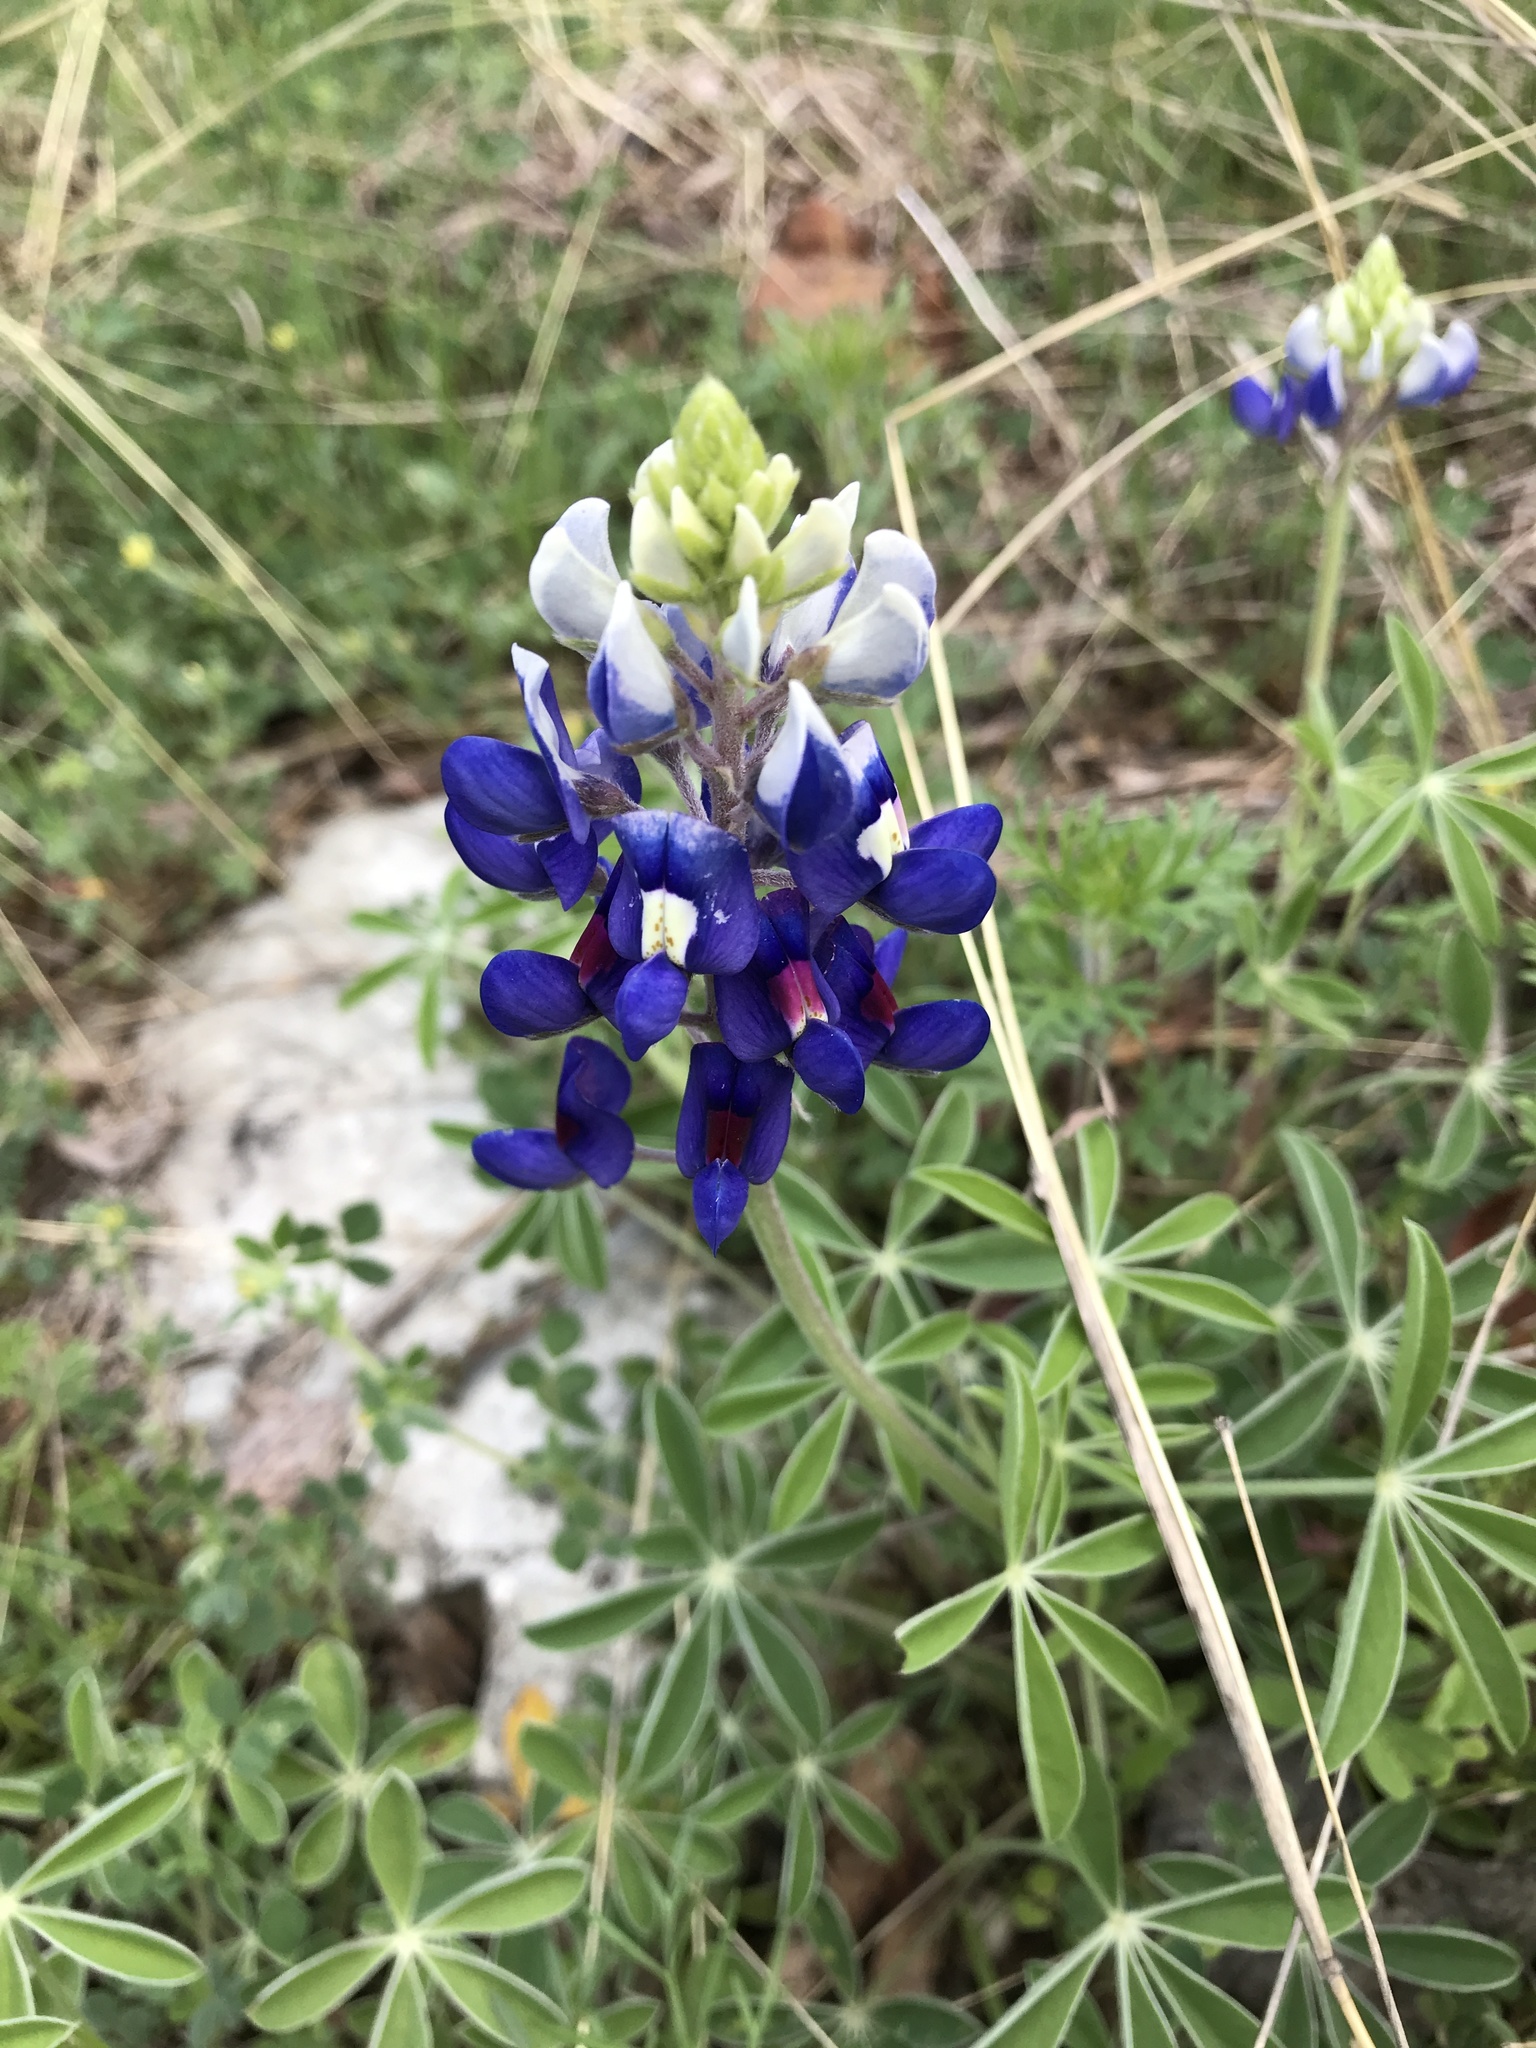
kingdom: Plantae
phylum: Tracheophyta
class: Magnoliopsida
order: Fabales
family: Fabaceae
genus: Lupinus
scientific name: Lupinus texensis
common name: Texas bluebonnet
